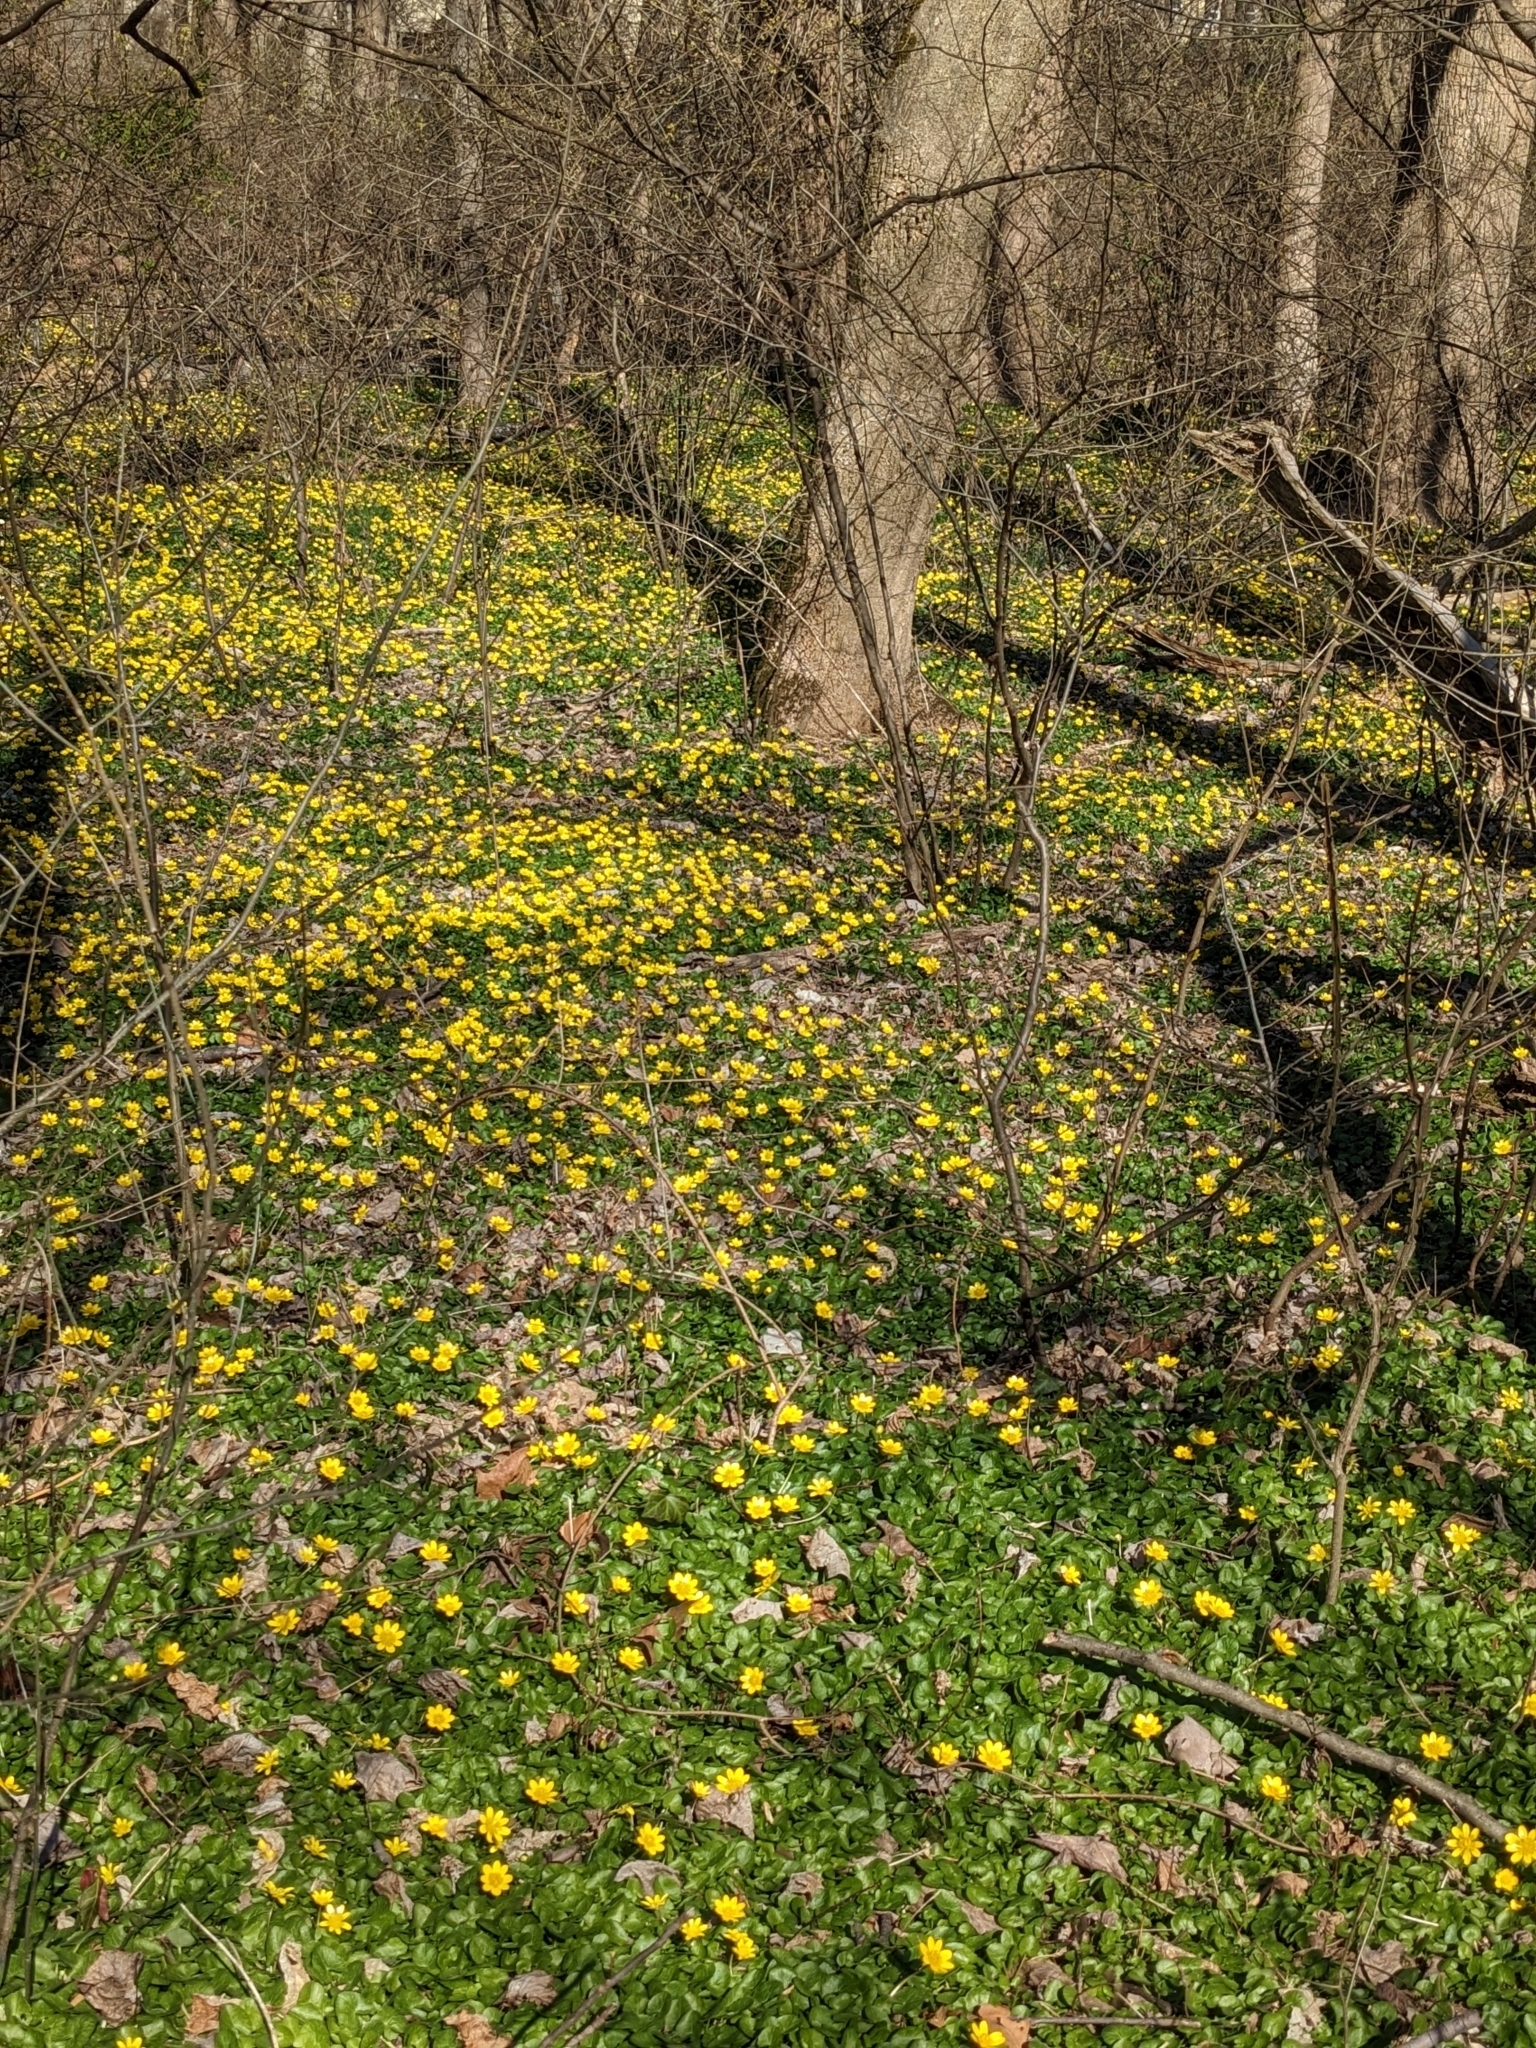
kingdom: Plantae
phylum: Tracheophyta
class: Magnoliopsida
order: Ranunculales
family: Ranunculaceae
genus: Ficaria
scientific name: Ficaria verna
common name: Lesser celandine
